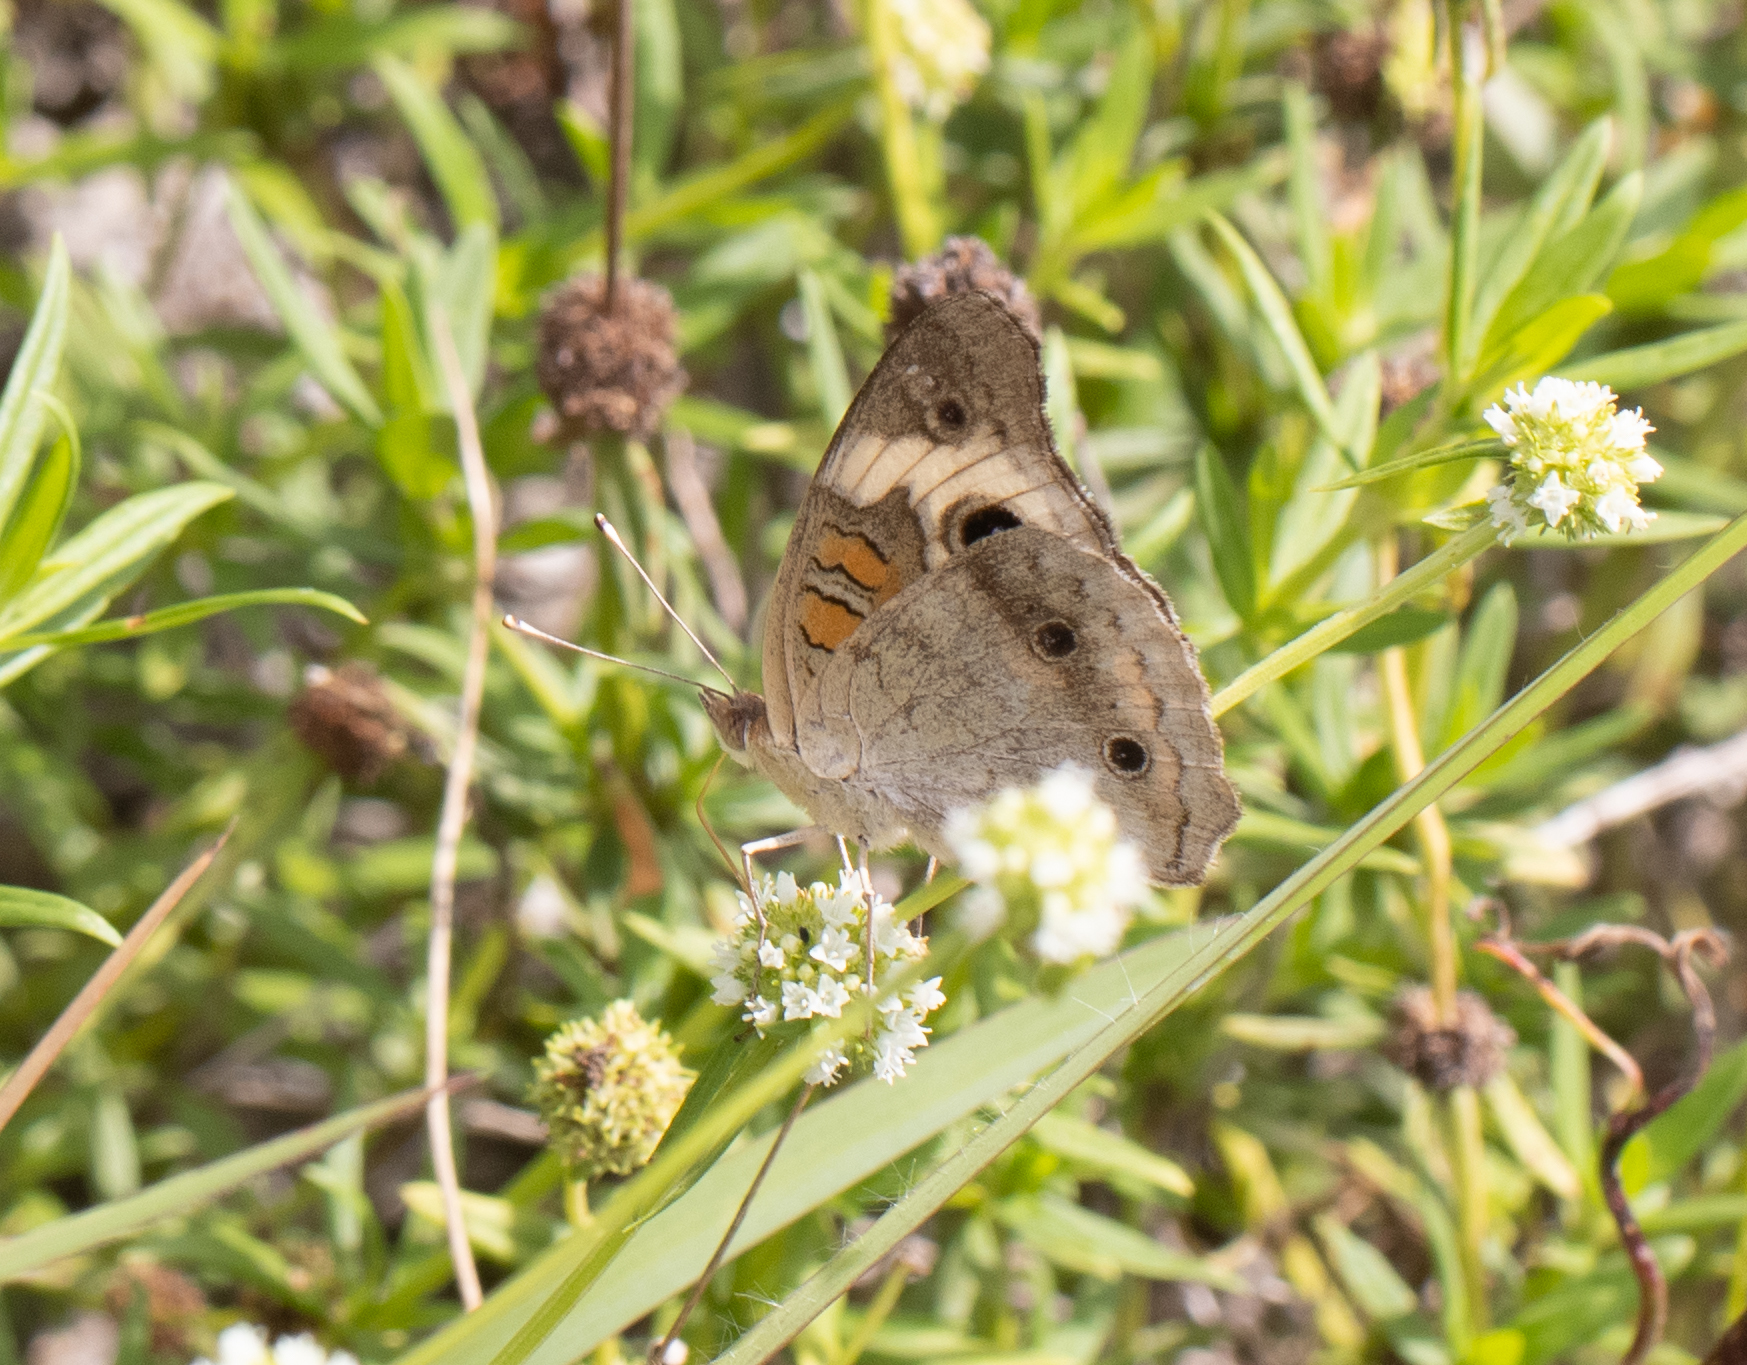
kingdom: Animalia
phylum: Arthropoda
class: Insecta
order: Lepidoptera
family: Nymphalidae
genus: Junonia
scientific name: Junonia coenia
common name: Common buckeye
